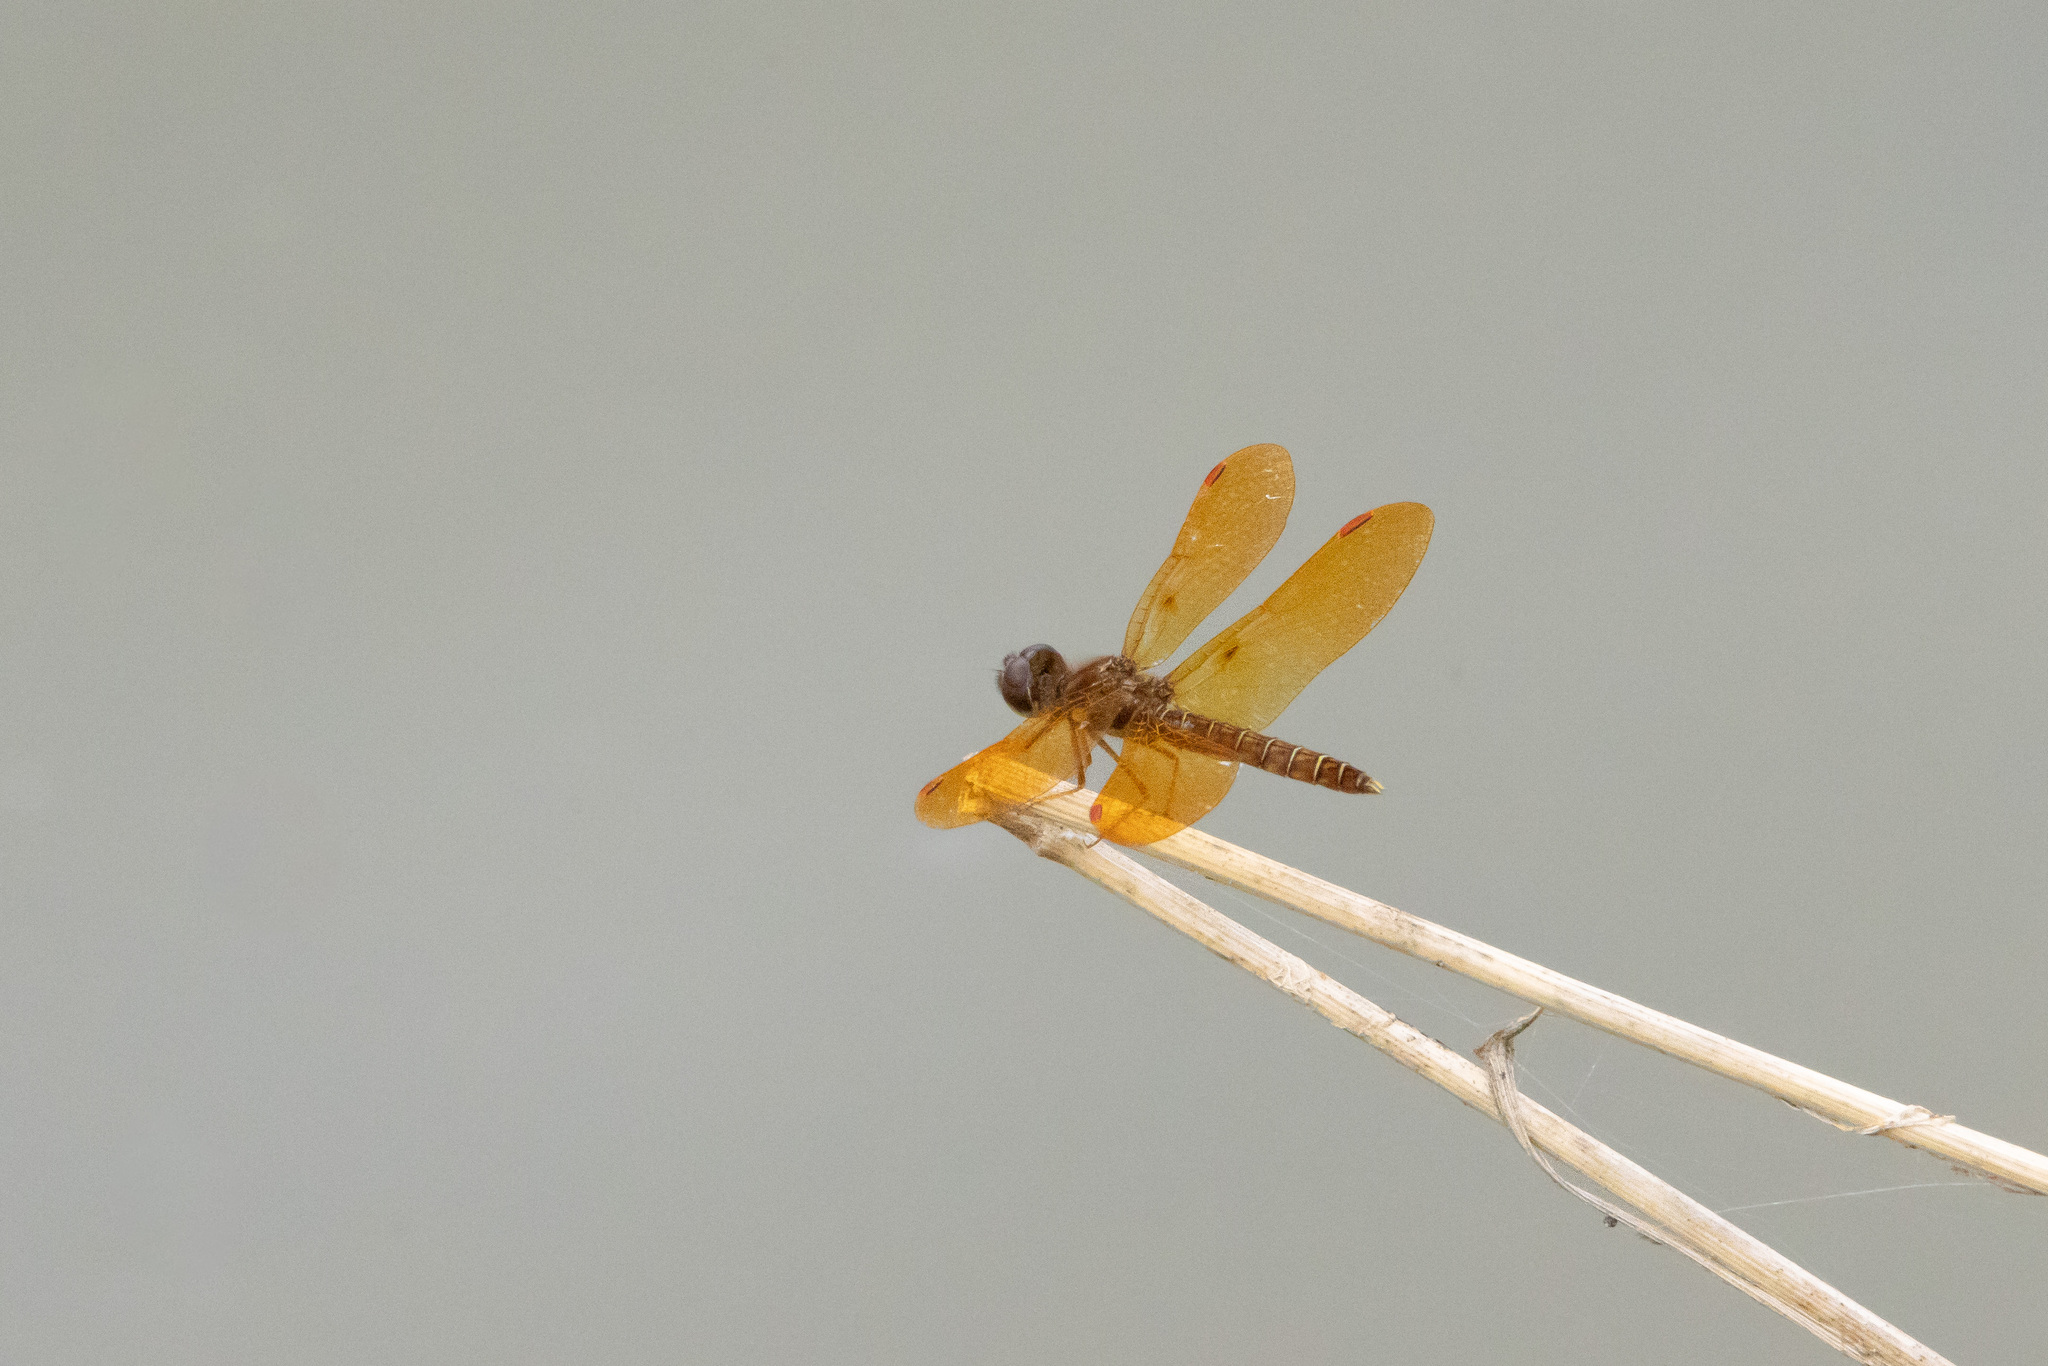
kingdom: Animalia
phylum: Arthropoda
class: Insecta
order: Odonata
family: Libellulidae
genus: Perithemis
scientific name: Perithemis tenera
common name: Eastern amberwing
